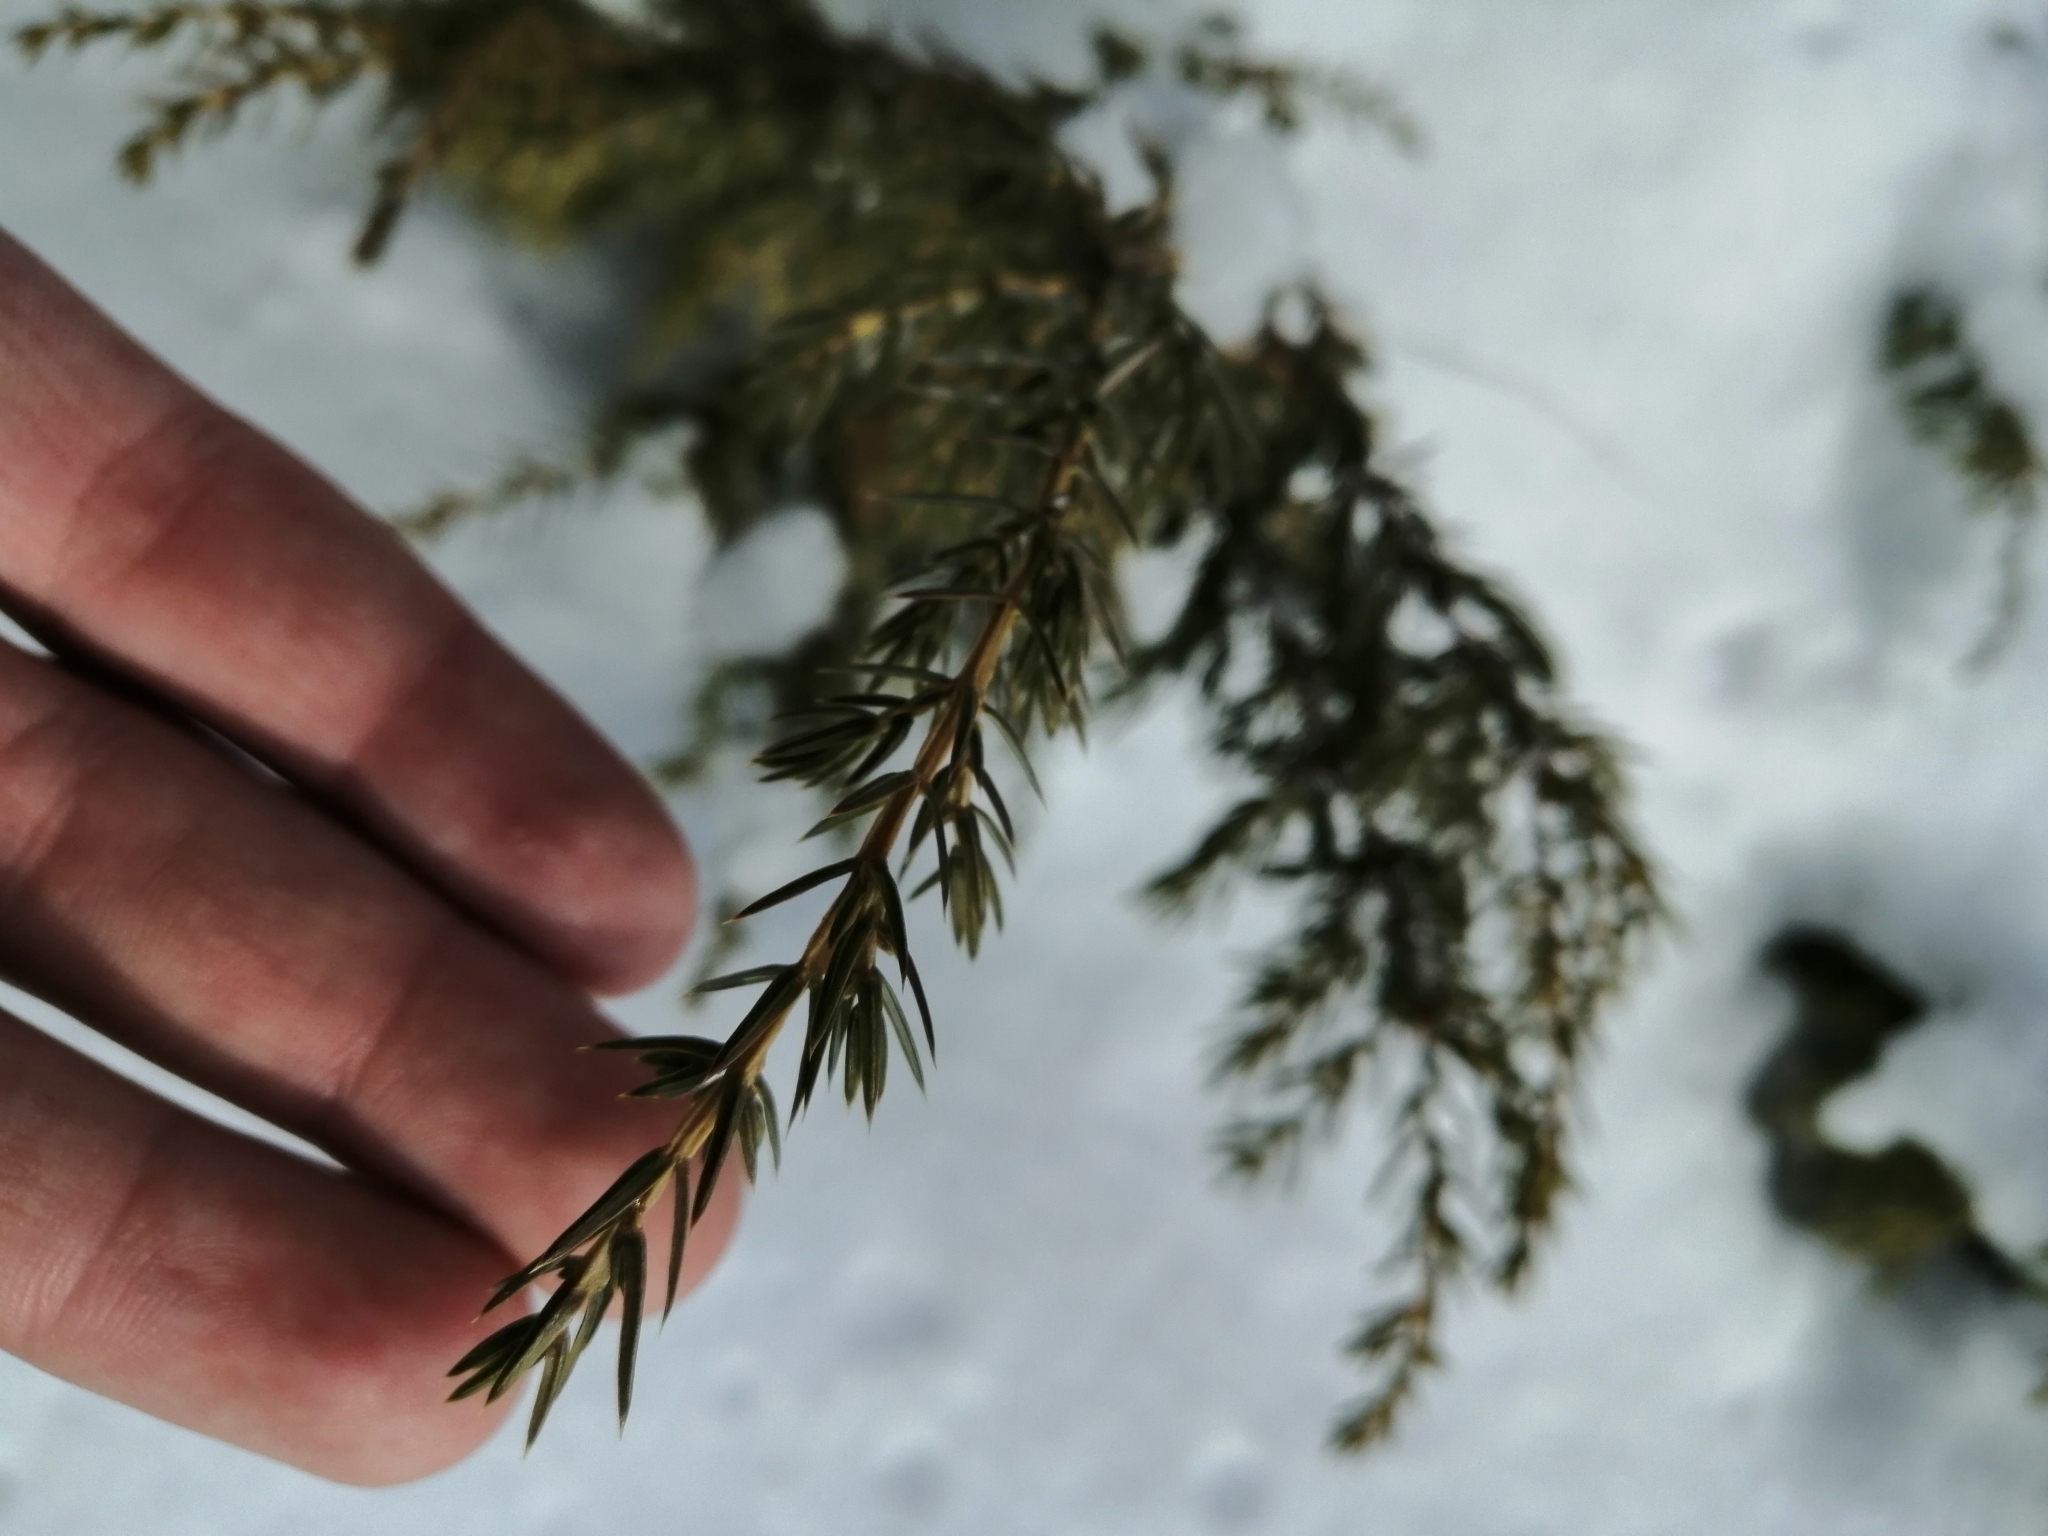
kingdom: Plantae
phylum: Tracheophyta
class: Pinopsida
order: Pinales
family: Cupressaceae
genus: Juniperus
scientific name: Juniperus communis
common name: Common juniper
